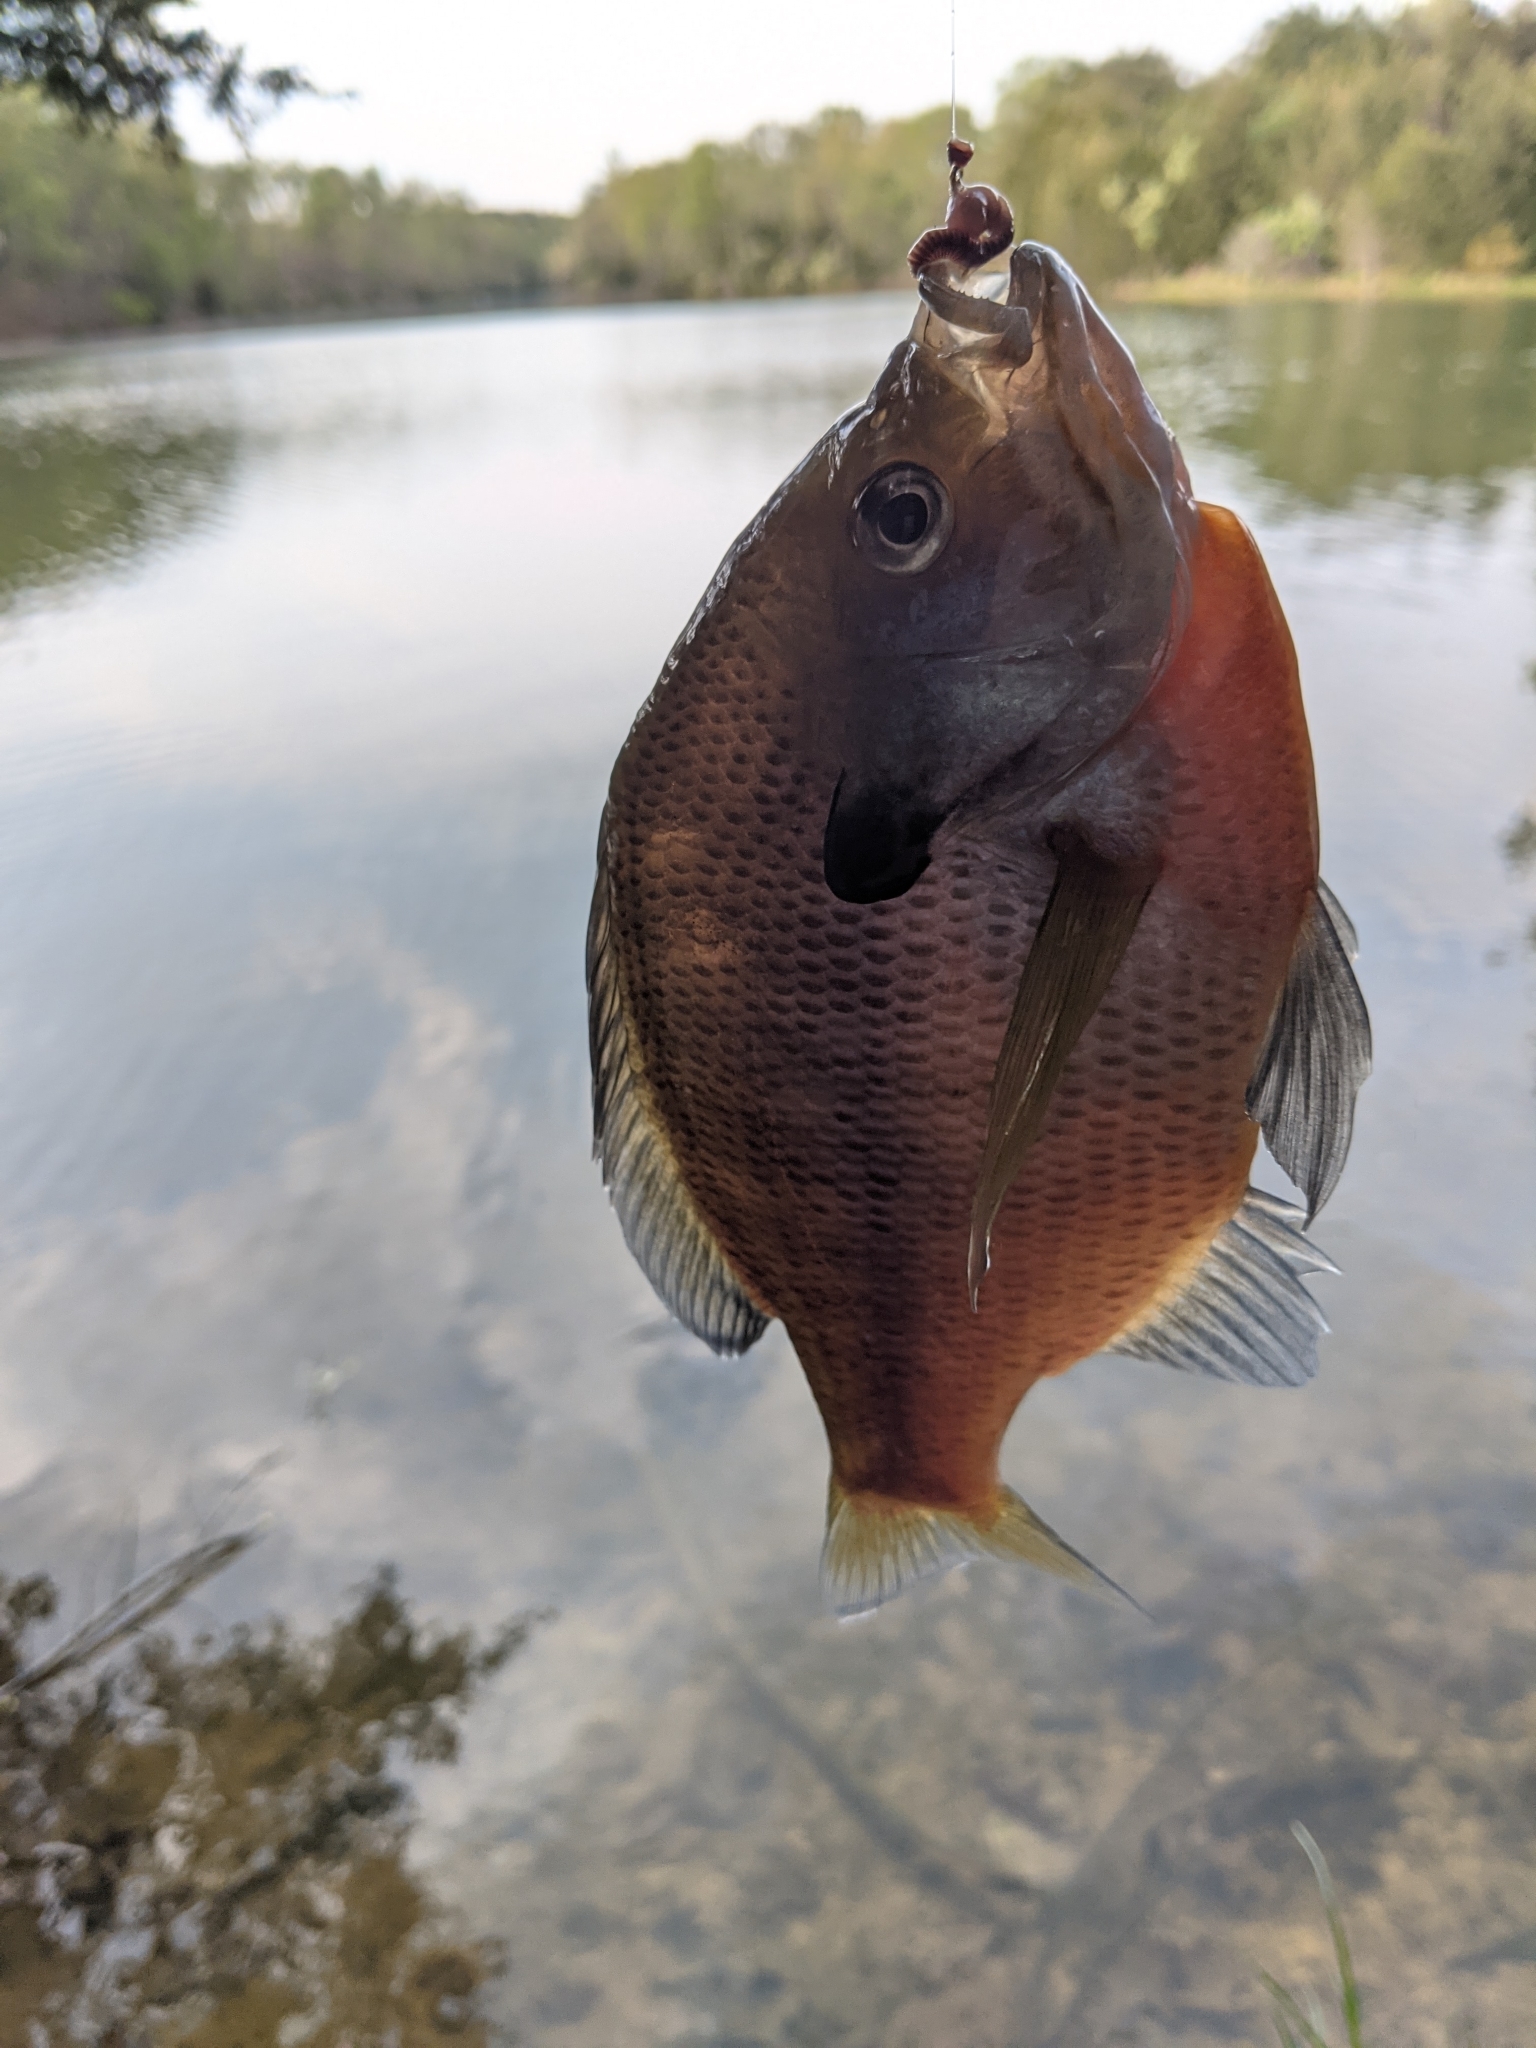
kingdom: Animalia
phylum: Chordata
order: Perciformes
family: Centrarchidae
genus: Lepomis
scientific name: Lepomis macrochirus
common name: Bluegill
